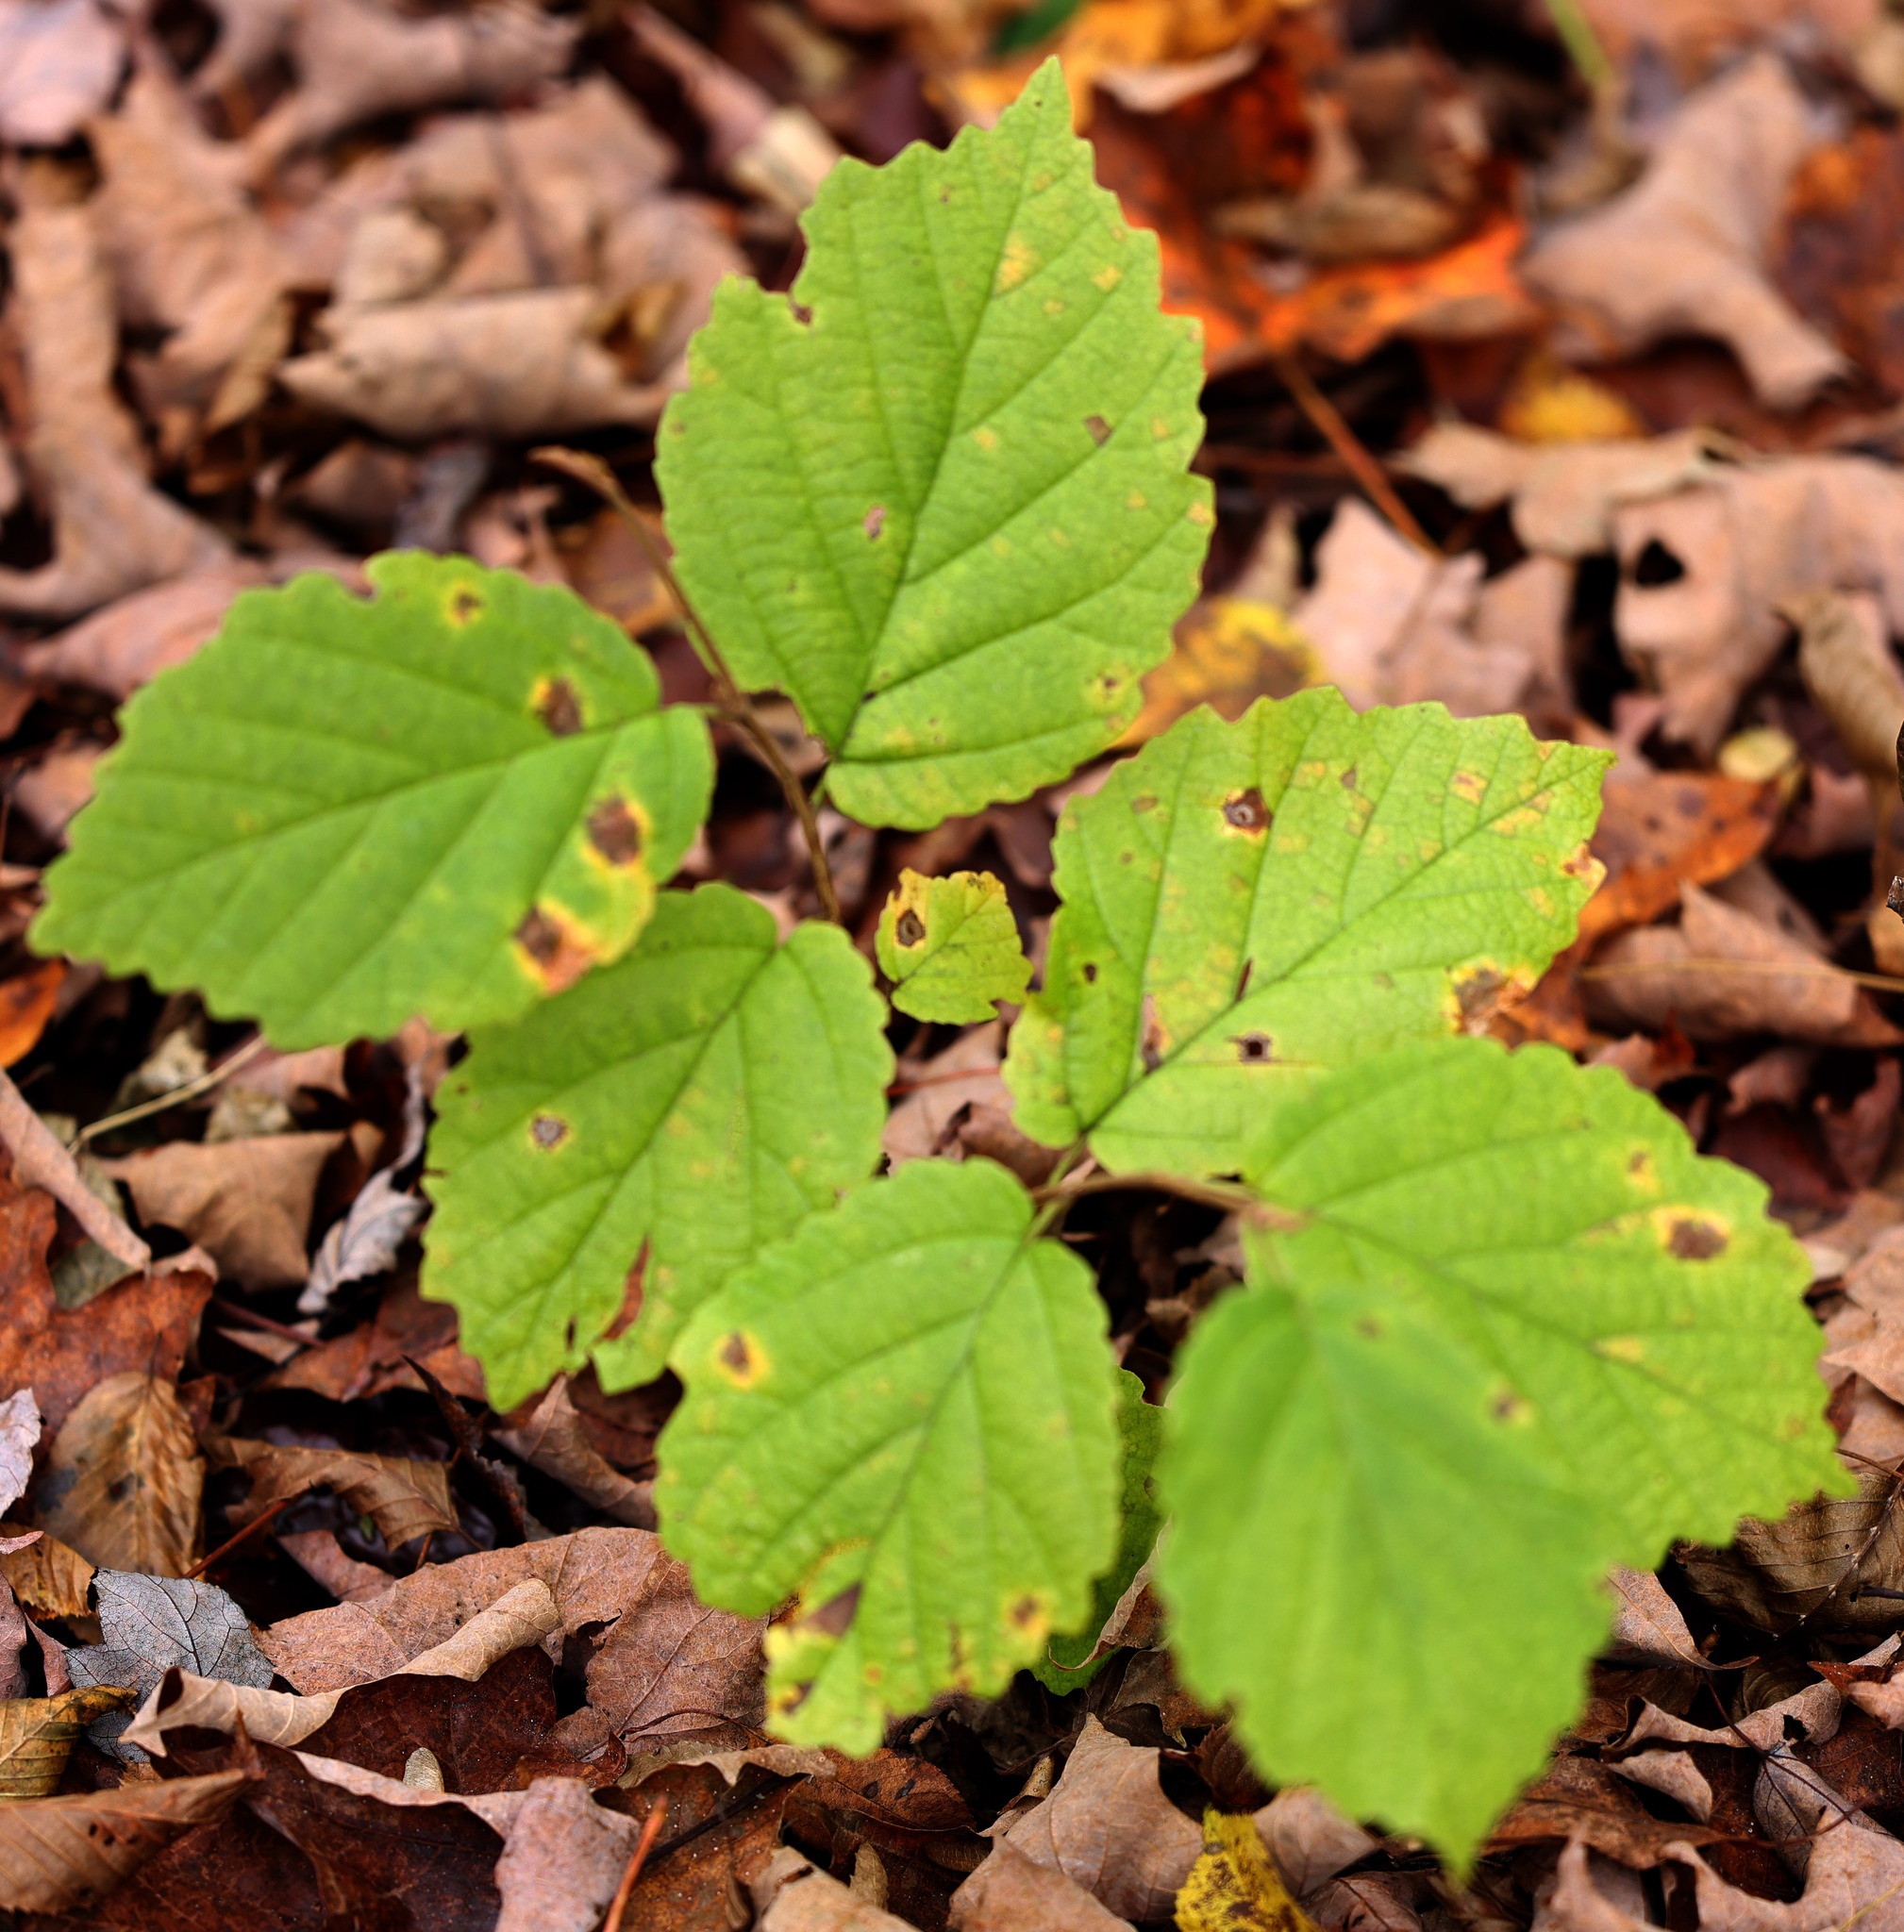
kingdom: Plantae
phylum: Tracheophyta
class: Magnoliopsida
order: Saxifragales
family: Hamamelidaceae
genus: Hamamelis
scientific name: Hamamelis virginiana
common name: Witch-hazel
